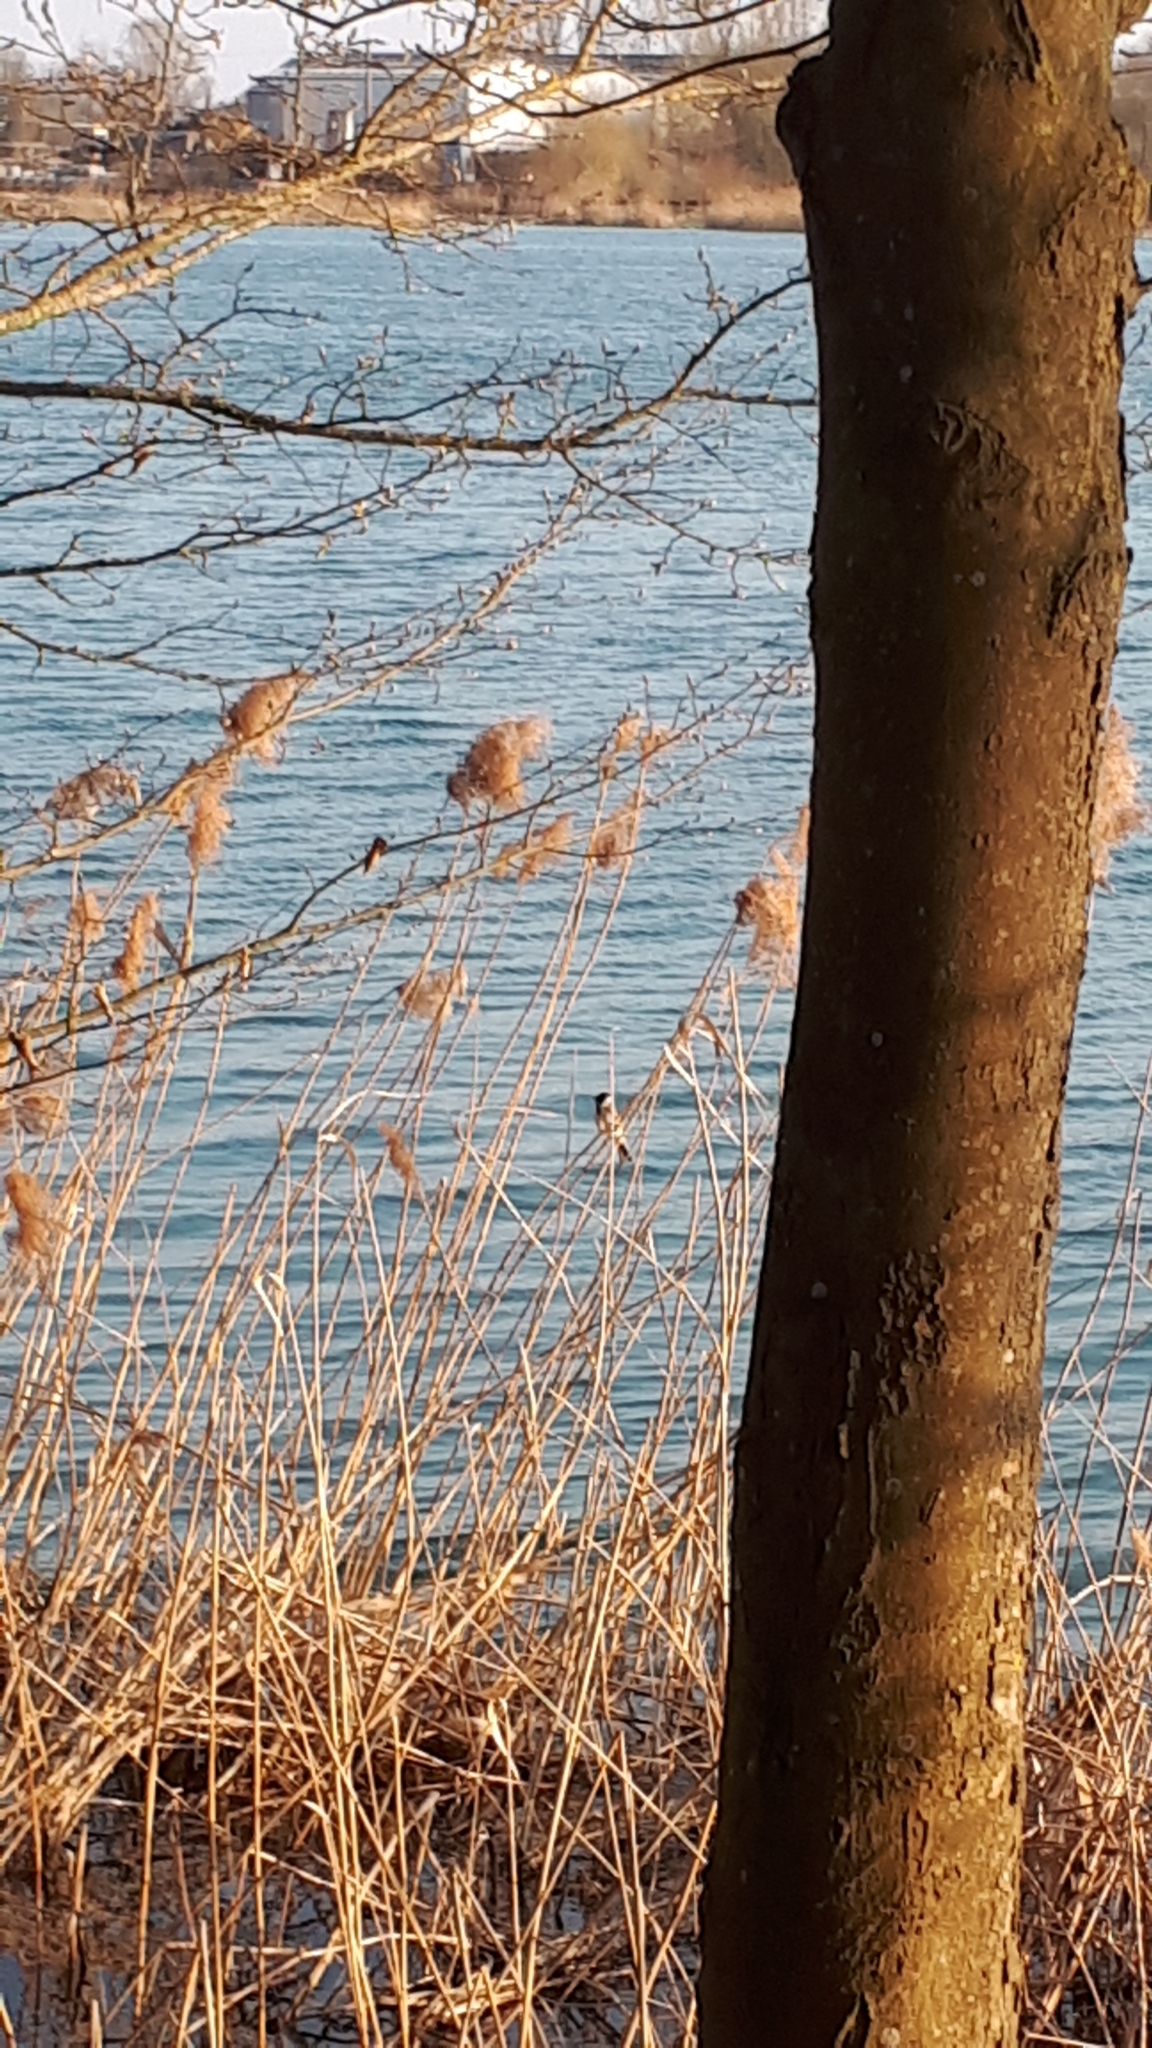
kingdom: Animalia
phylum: Chordata
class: Aves
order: Passeriformes
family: Emberizidae
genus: Emberiza
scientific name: Emberiza schoeniclus
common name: Reed bunting
